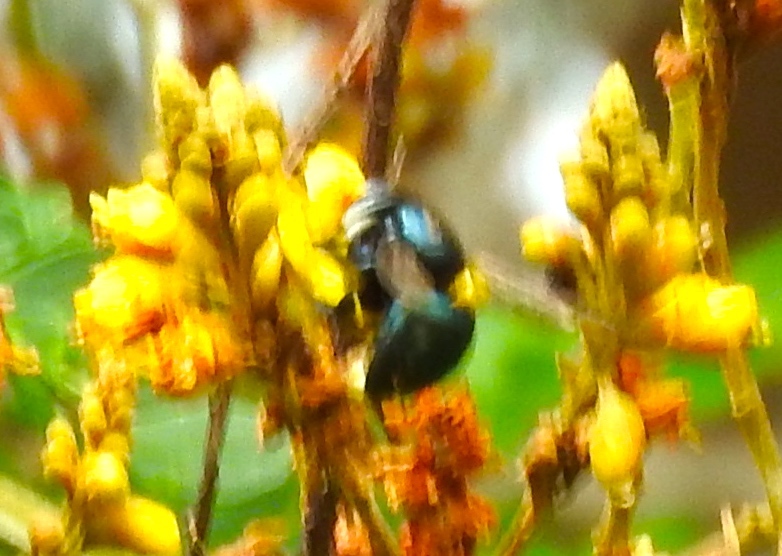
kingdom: Animalia
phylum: Arthropoda
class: Insecta
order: Hymenoptera
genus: Schonnherria
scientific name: Schonnherria
